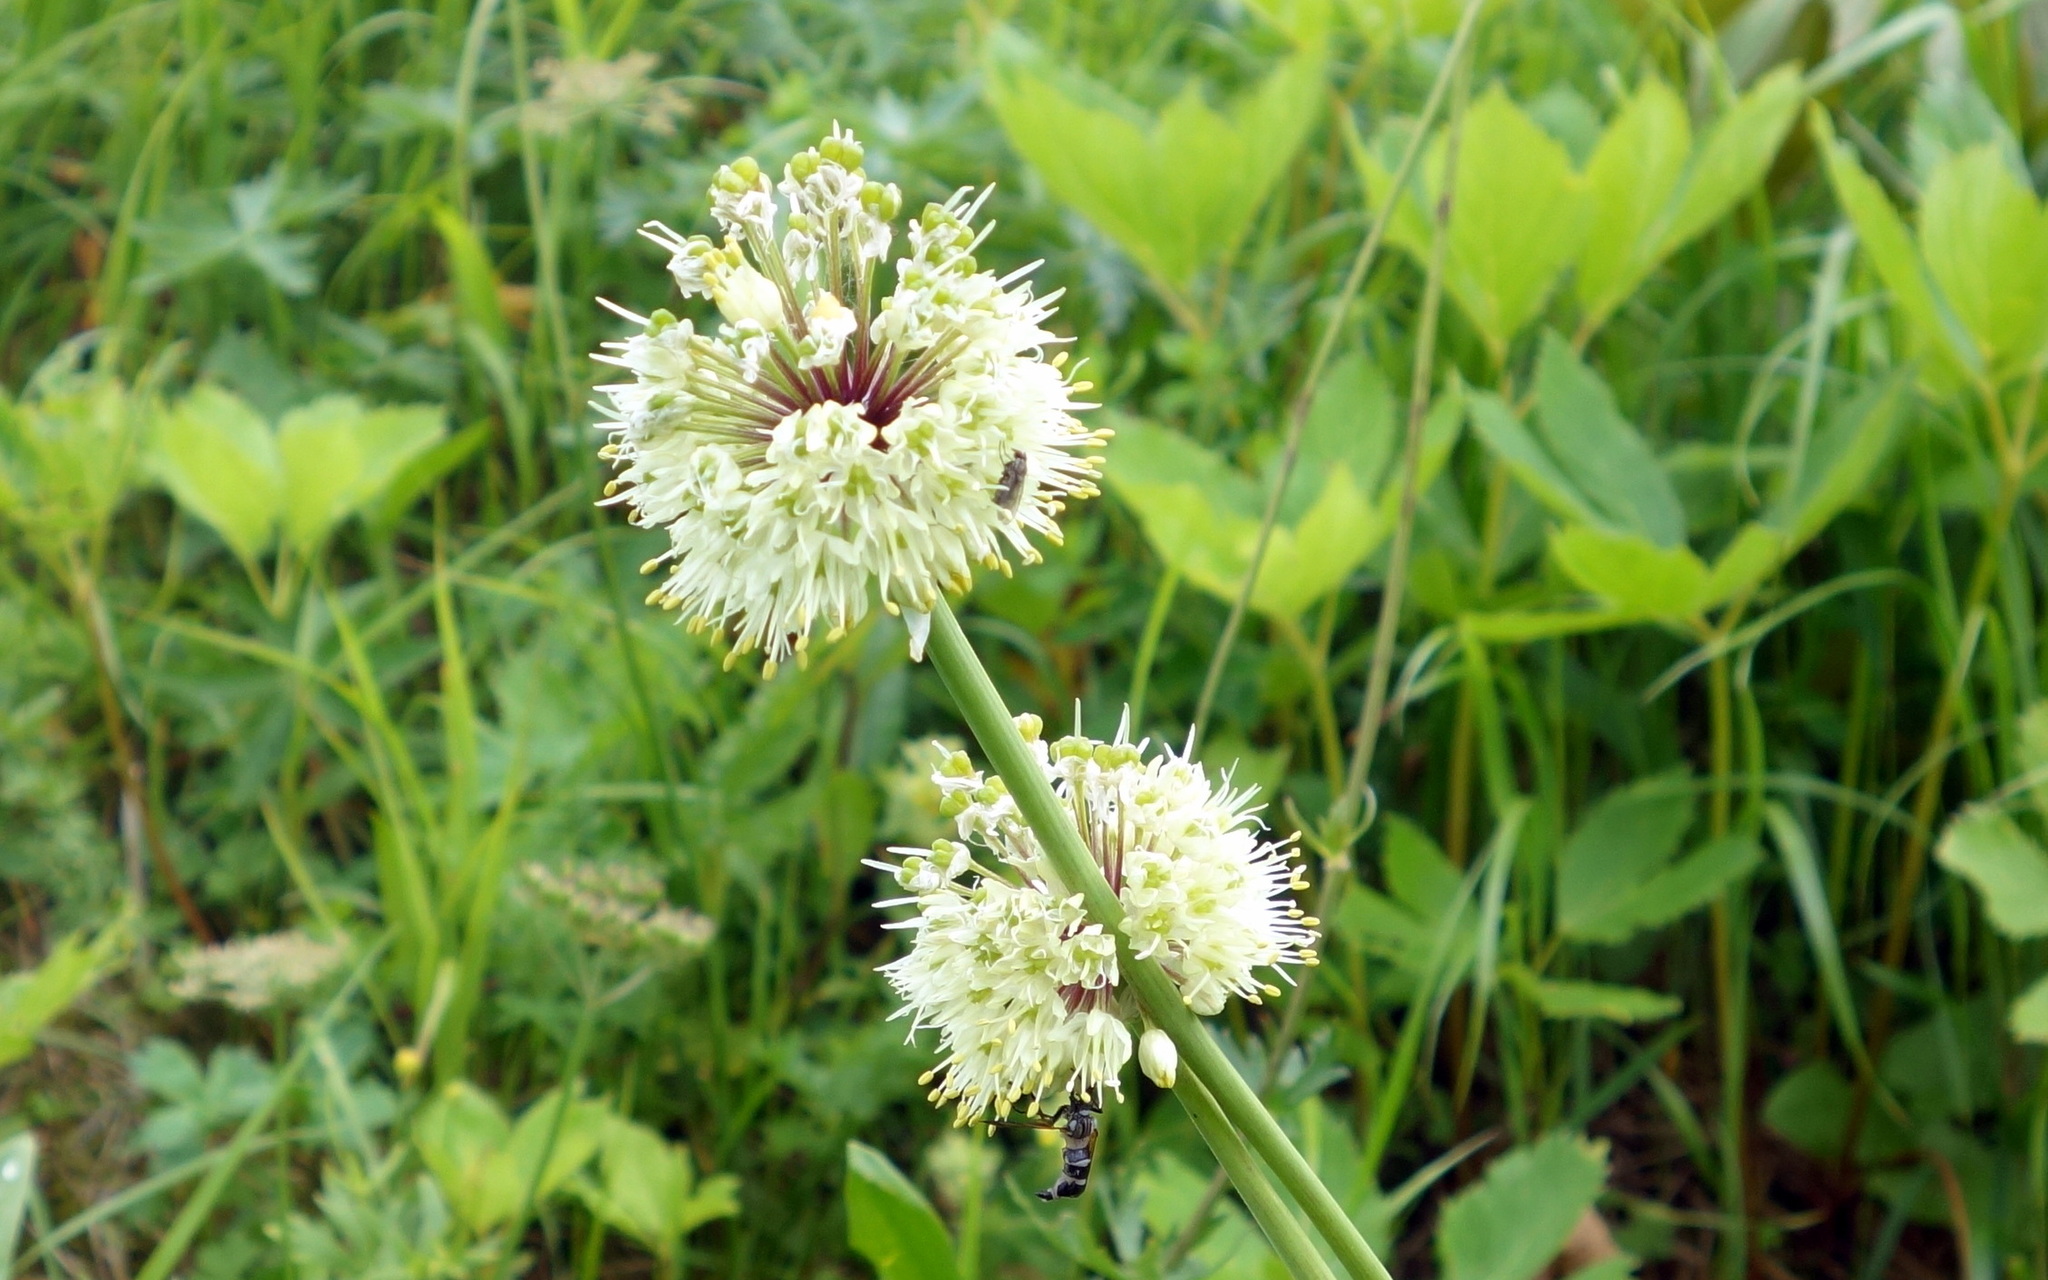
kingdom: Plantae
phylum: Tracheophyta
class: Liliopsida
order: Asparagales
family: Amaryllidaceae
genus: Allium
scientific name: Allium victorialis
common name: Alpine leek
